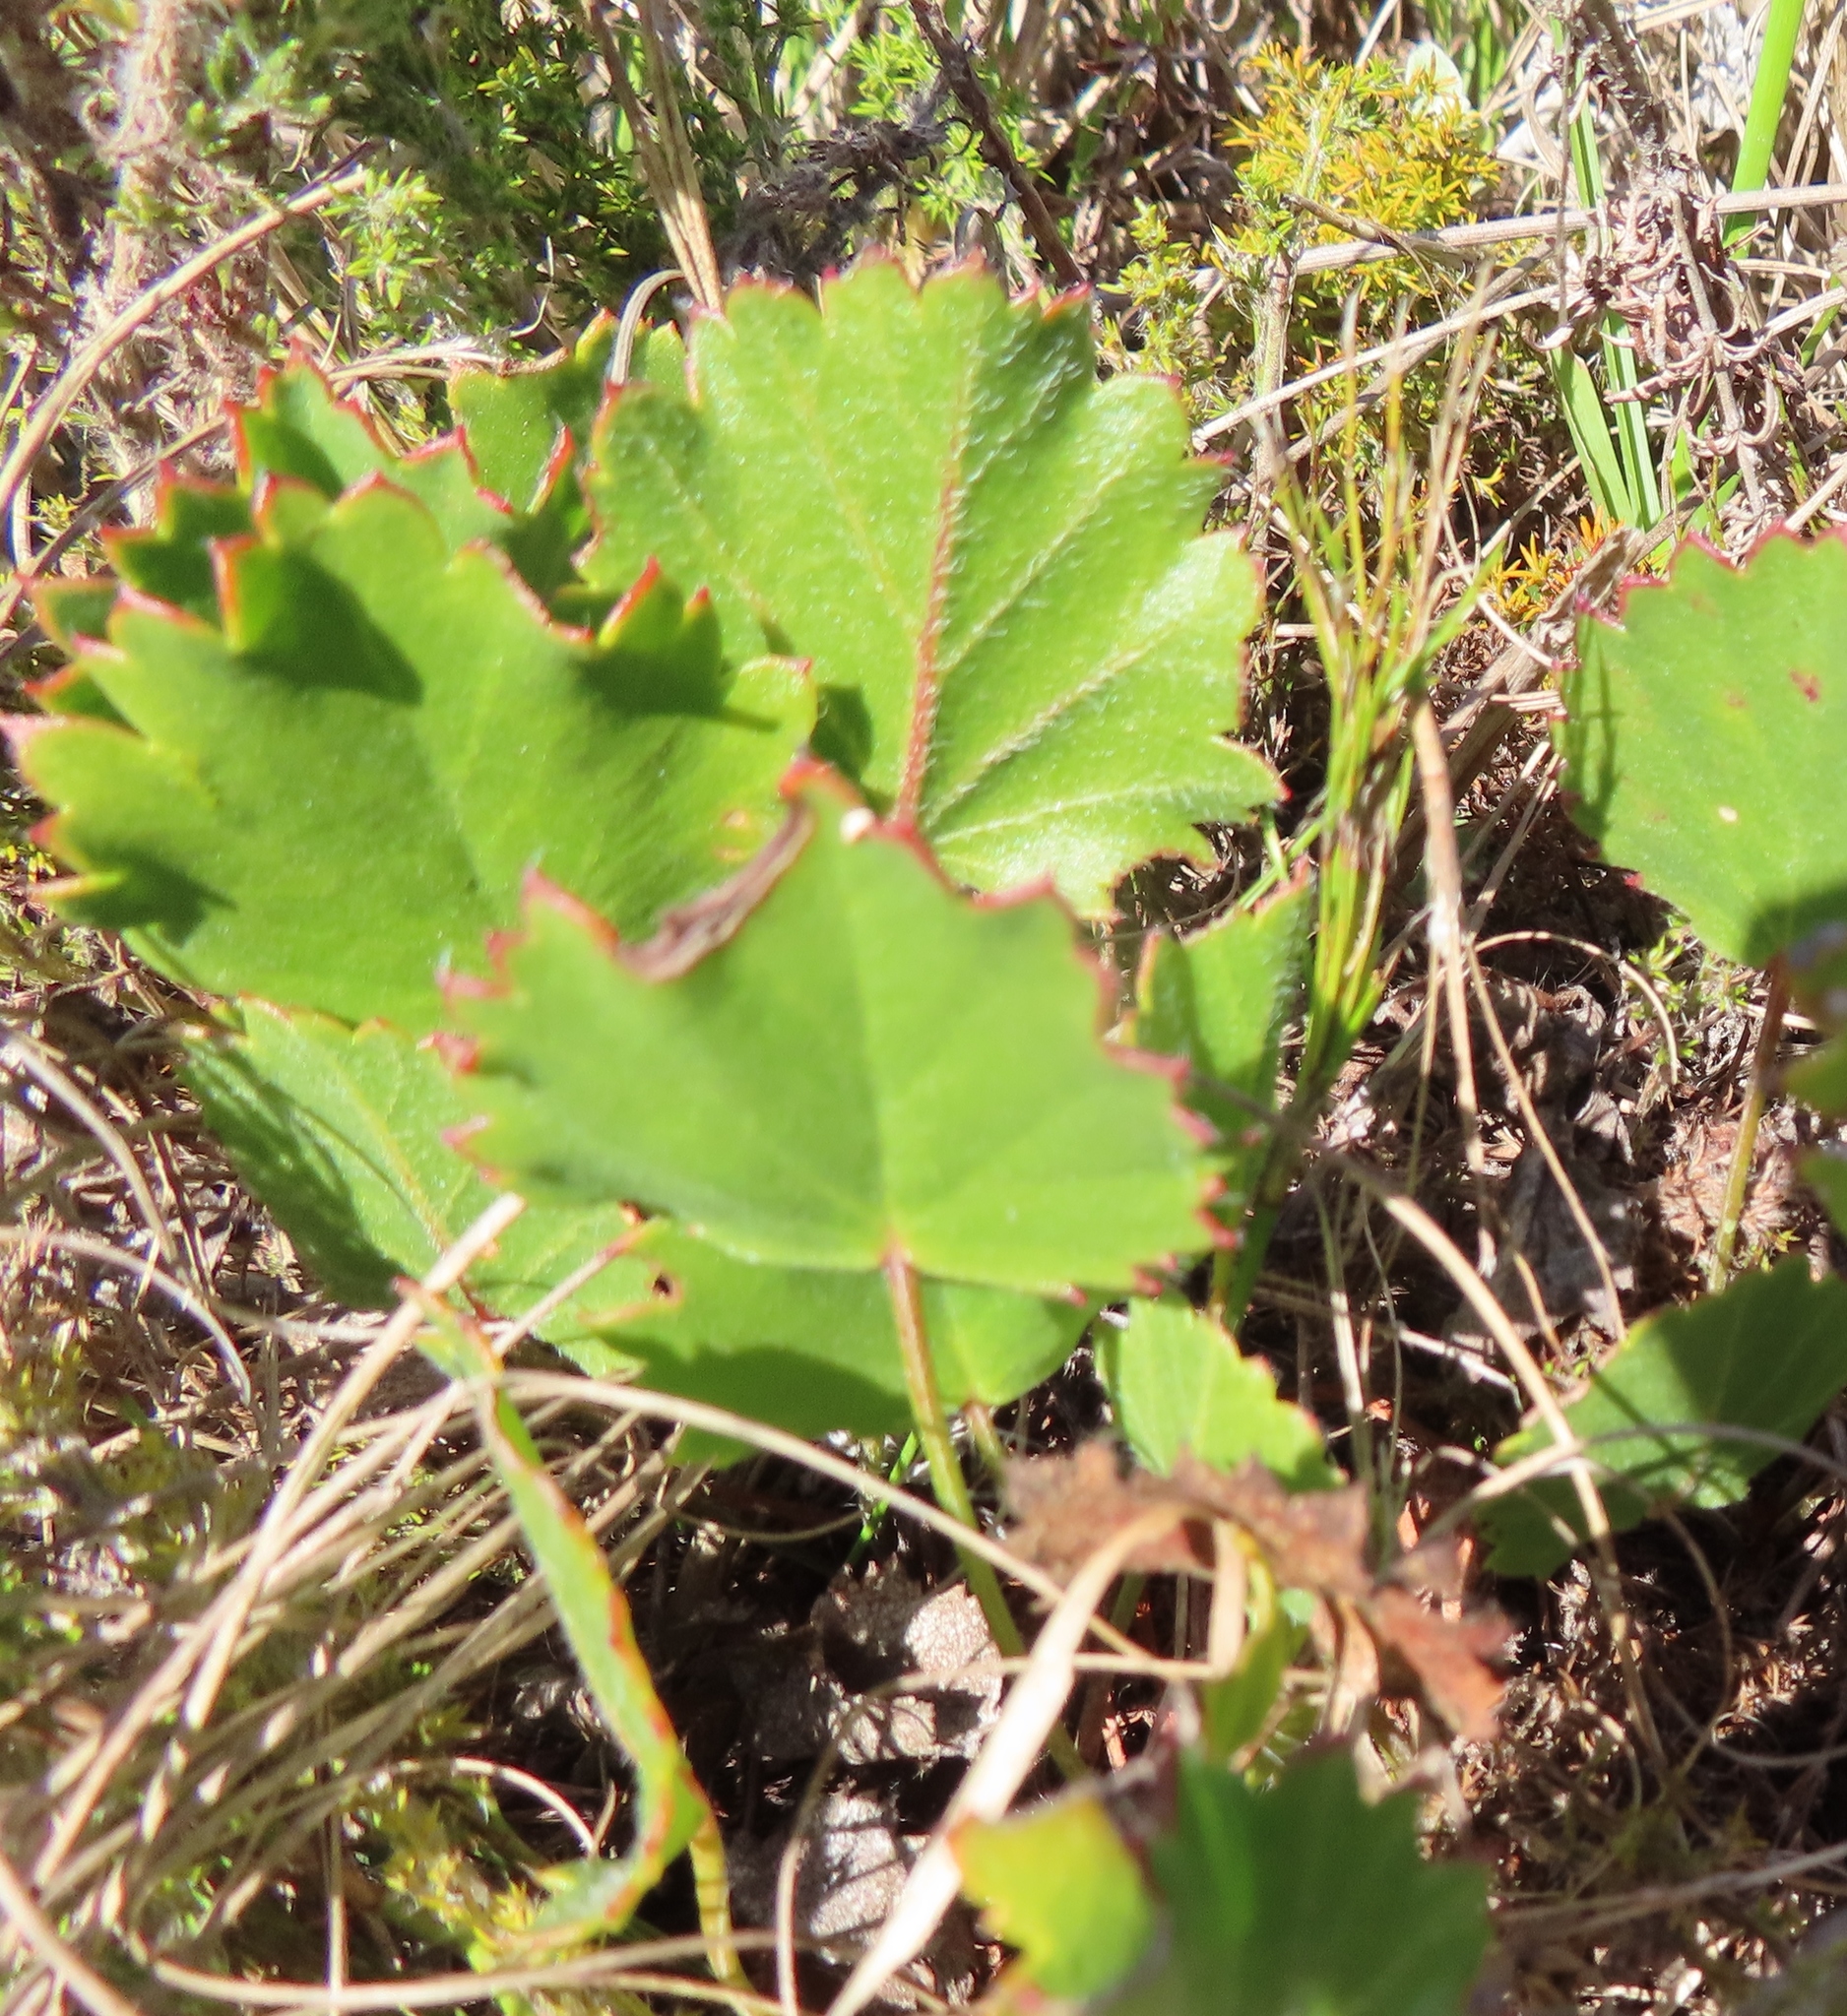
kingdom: Plantae
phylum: Tracheophyta
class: Magnoliopsida
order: Geraniales
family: Geraniaceae
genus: Pelargonium
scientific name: Pelargonium elegans
